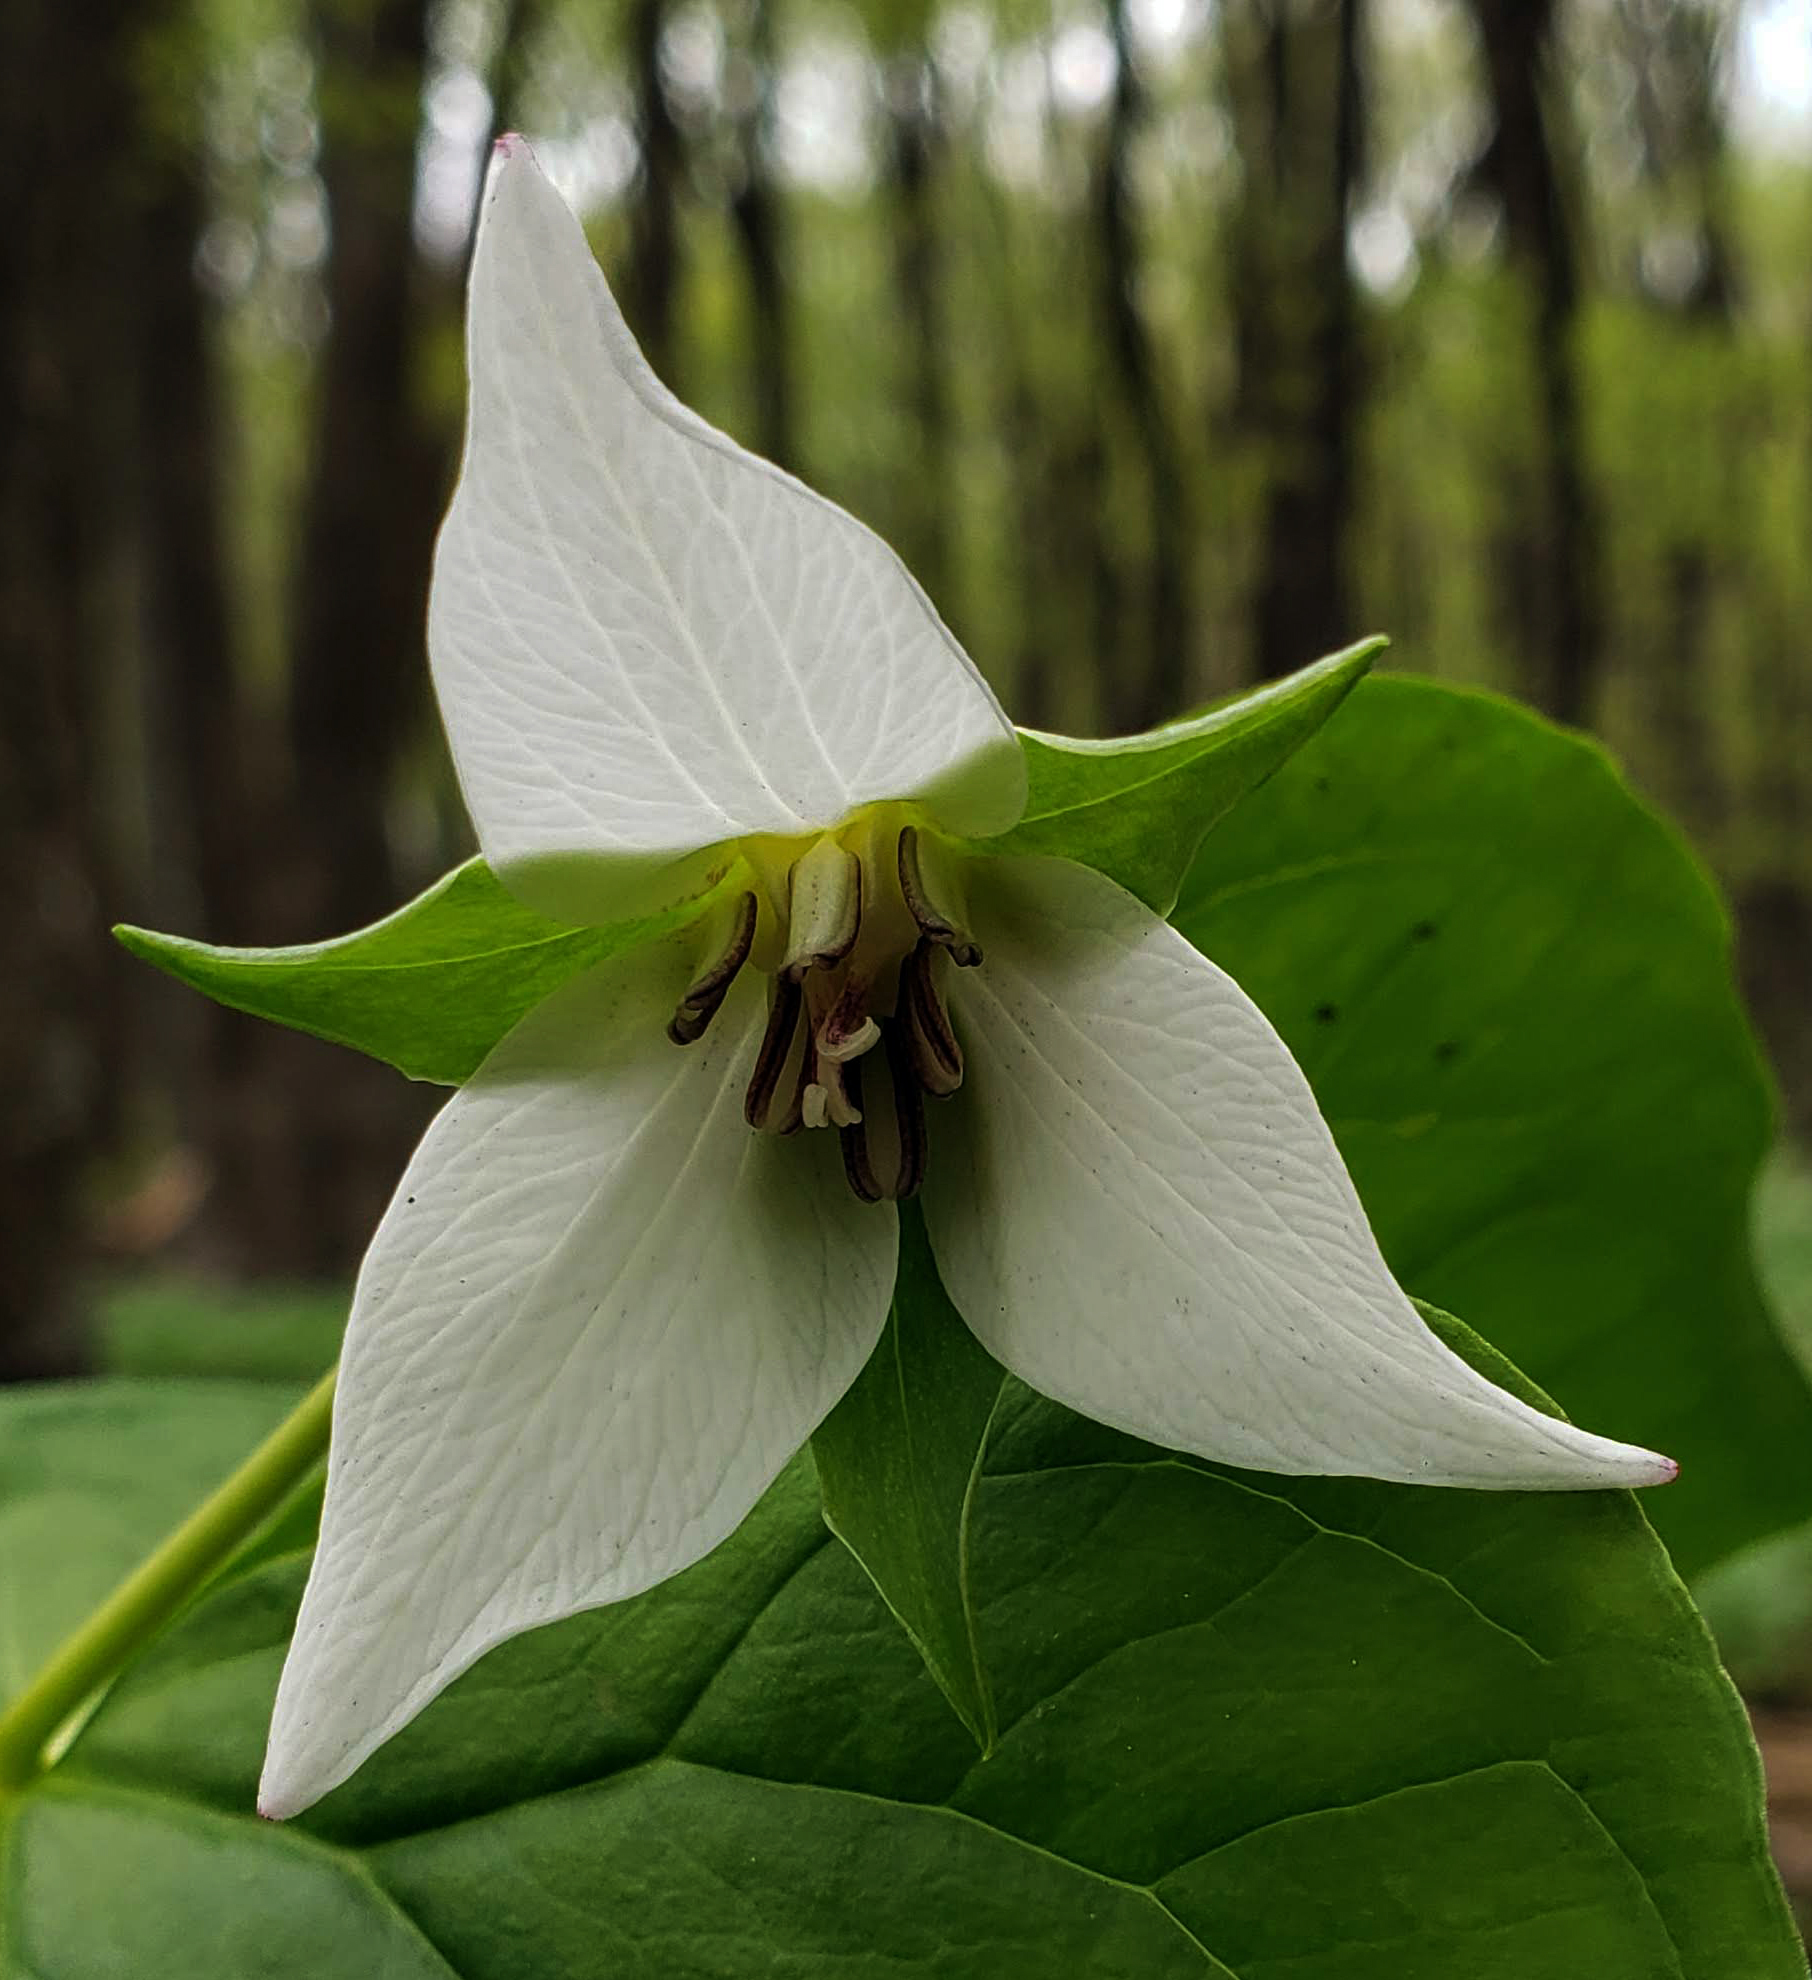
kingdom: Plantae
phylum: Tracheophyta
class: Liliopsida
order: Liliales
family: Melanthiaceae
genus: Trillium
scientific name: Trillium flexipes
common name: Drooping trillium
